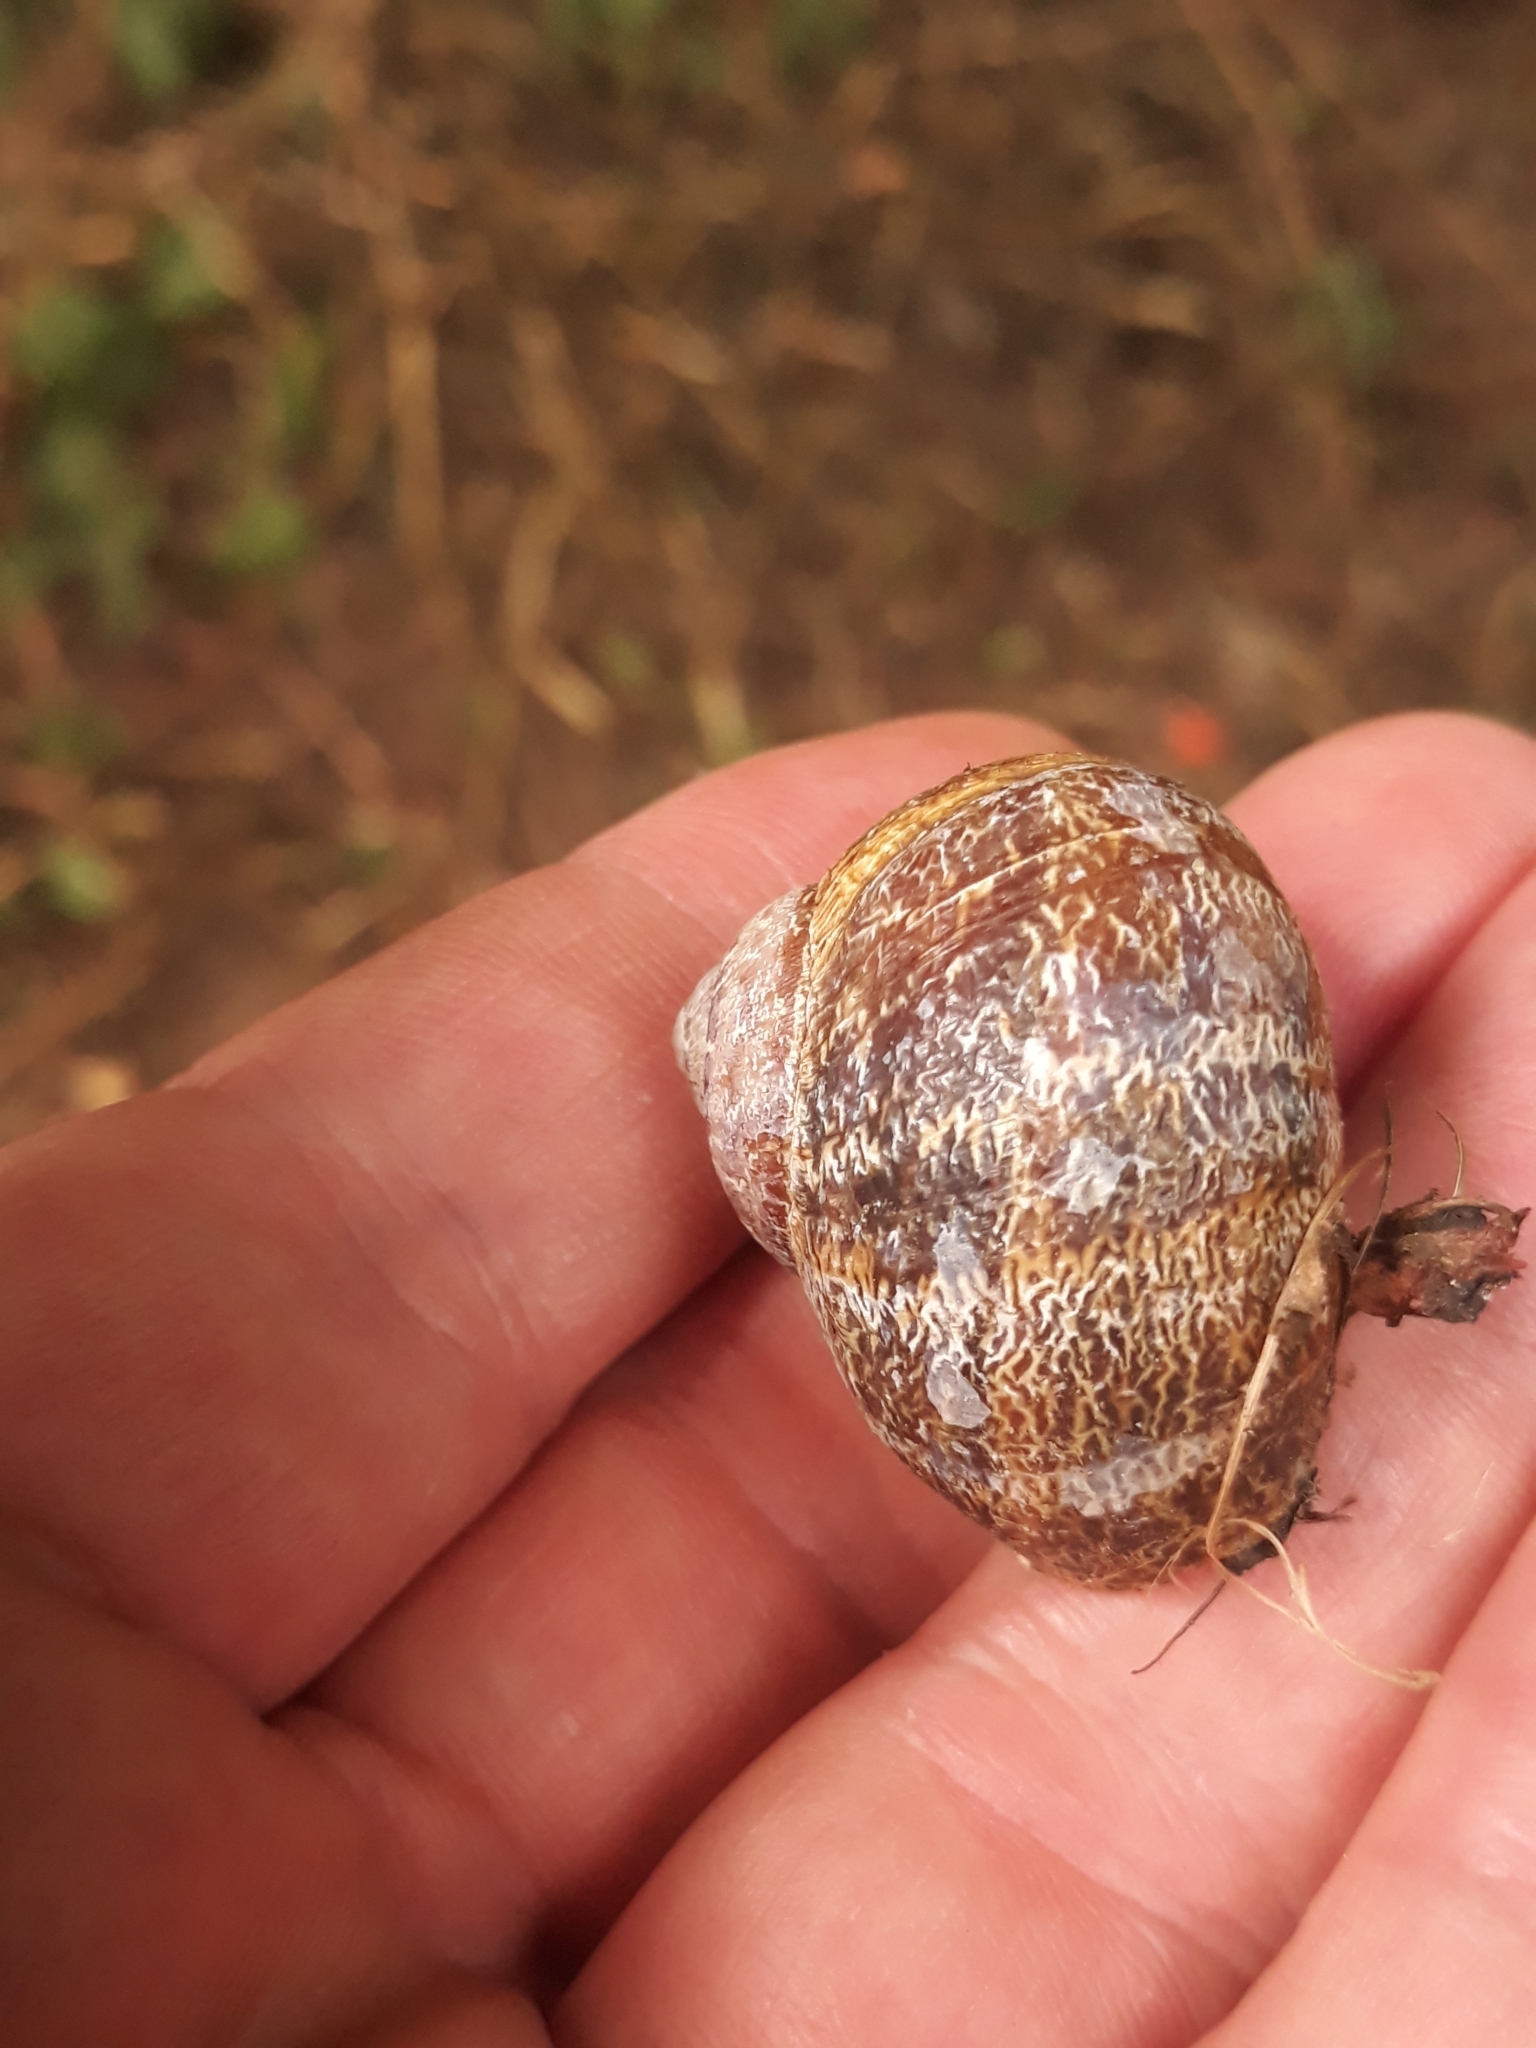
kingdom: Animalia
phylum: Mollusca
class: Gastropoda
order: Stylommatophora
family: Helicidae
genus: Cornu
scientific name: Cornu aspersum
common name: Brown garden snail
